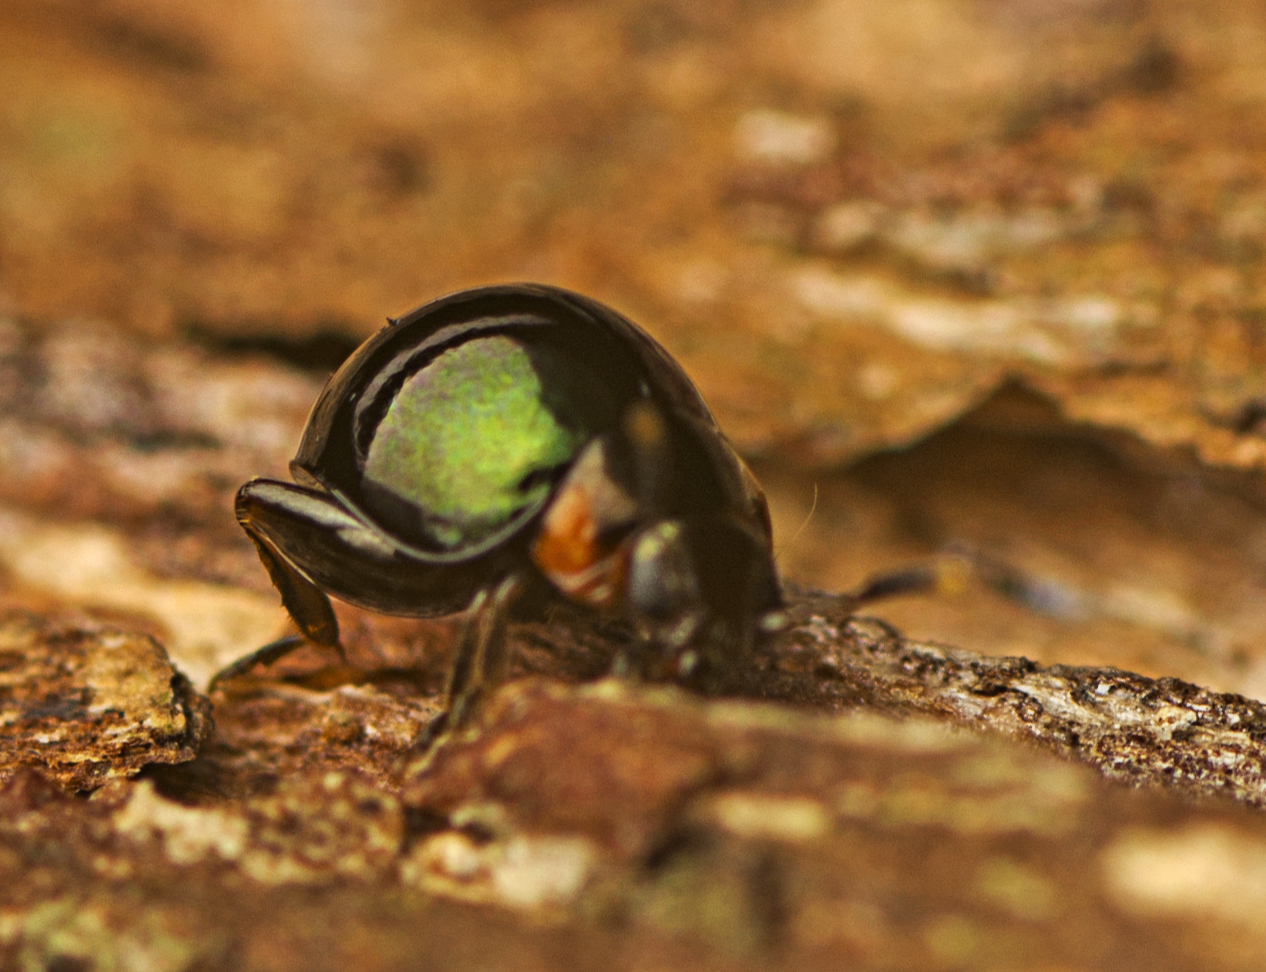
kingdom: Animalia
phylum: Arthropoda
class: Insecta
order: Coleoptera
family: Chrysomelidae
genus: Ivalia
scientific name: Ivalia
